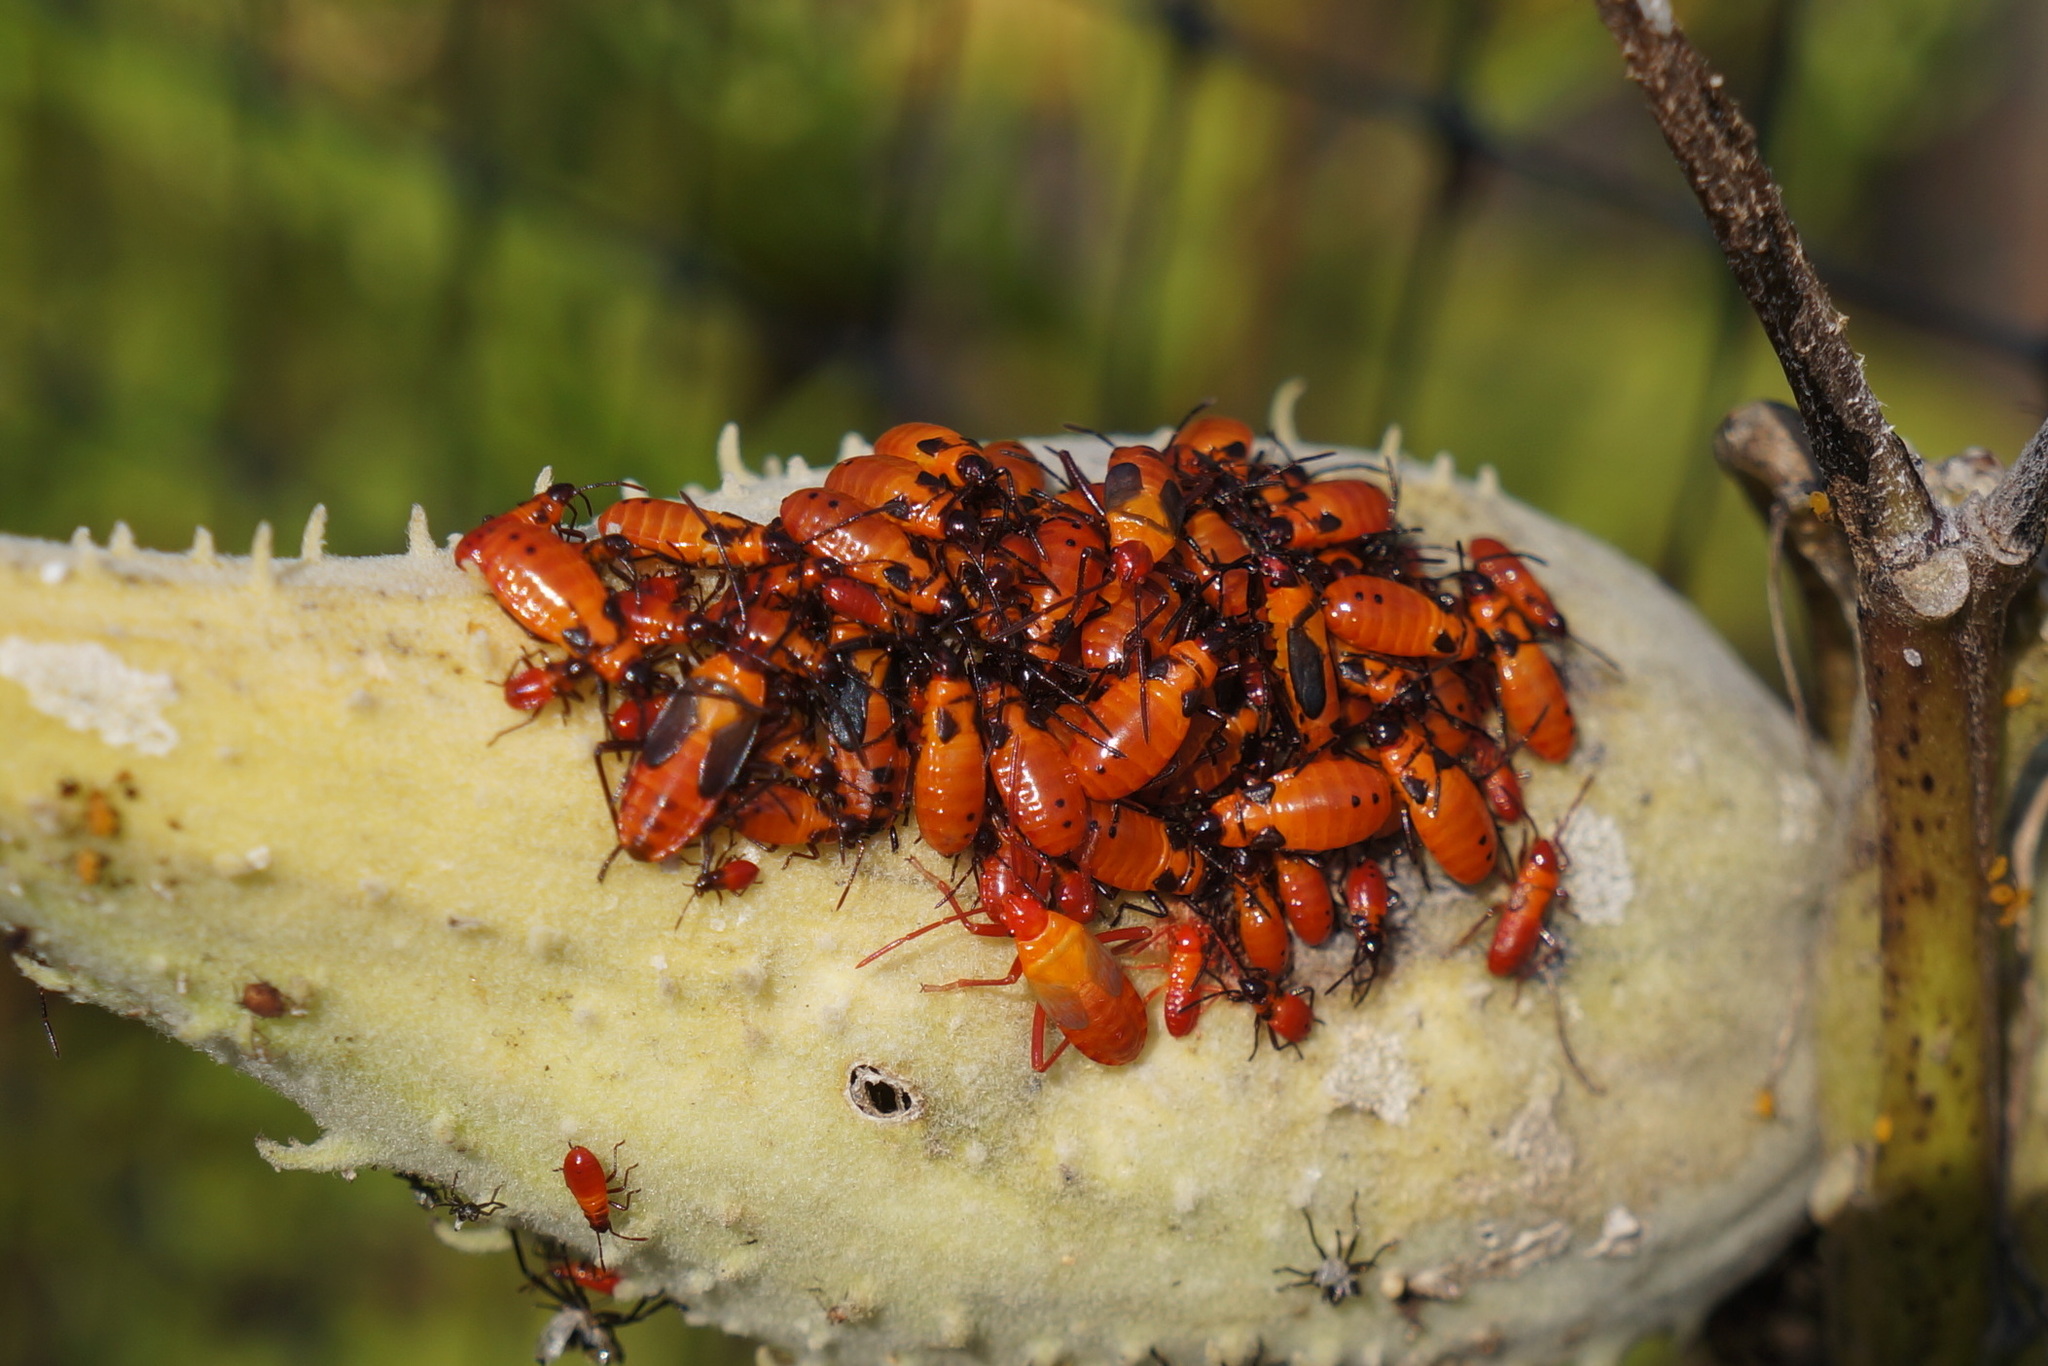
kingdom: Animalia
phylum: Arthropoda
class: Insecta
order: Hemiptera
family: Lygaeidae
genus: Oncopeltus
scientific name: Oncopeltus fasciatus
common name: Large milkweed bug
